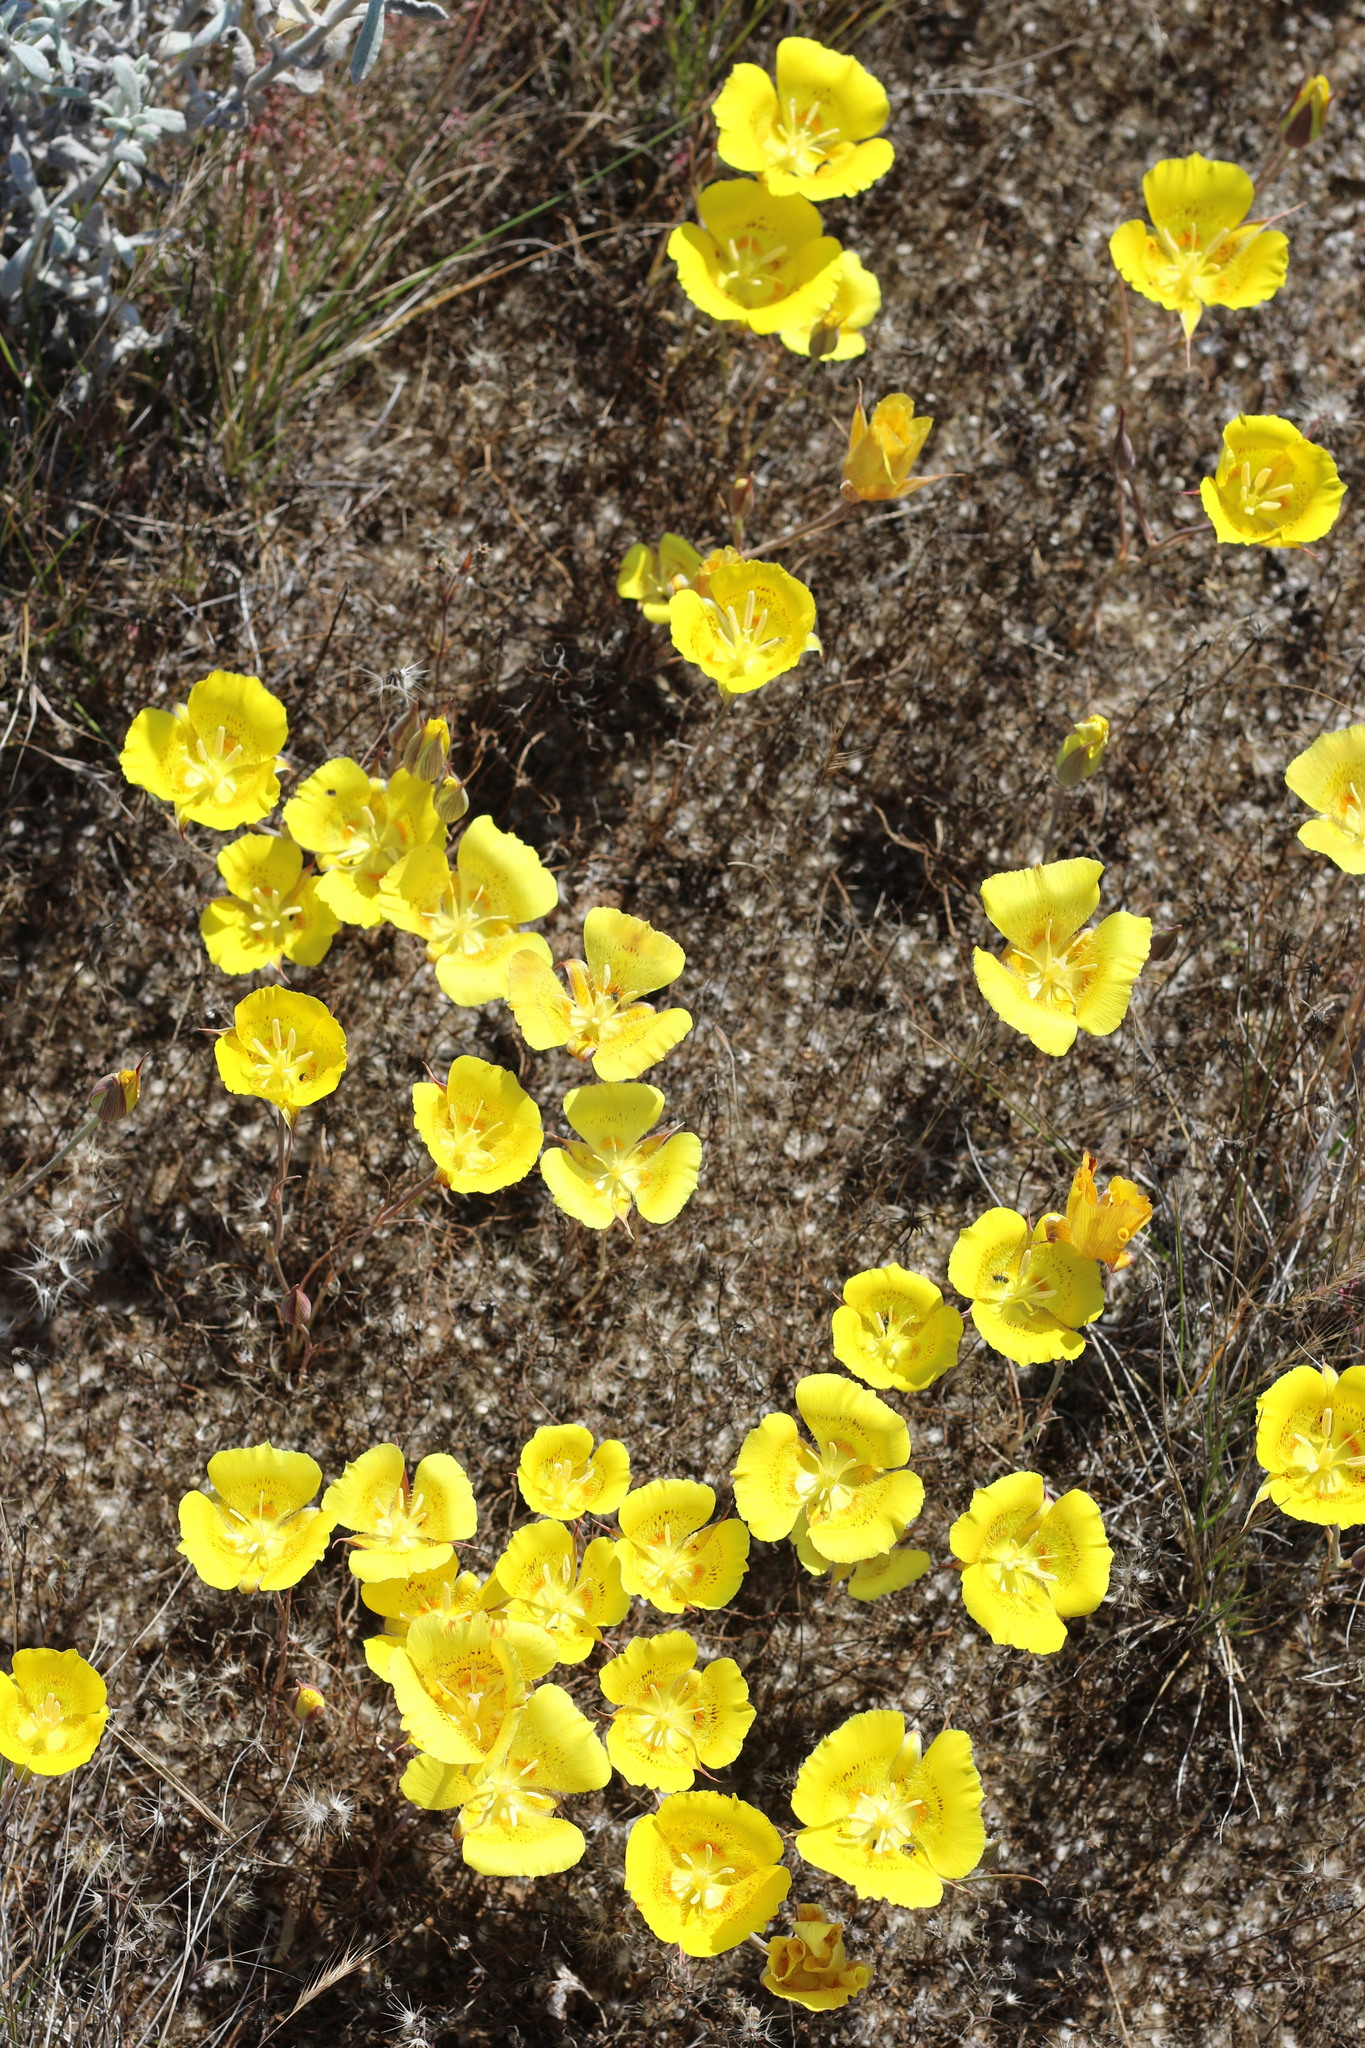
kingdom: Plantae
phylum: Tracheophyta
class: Liliopsida
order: Liliales
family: Liliaceae
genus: Calochortus
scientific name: Calochortus luteus
